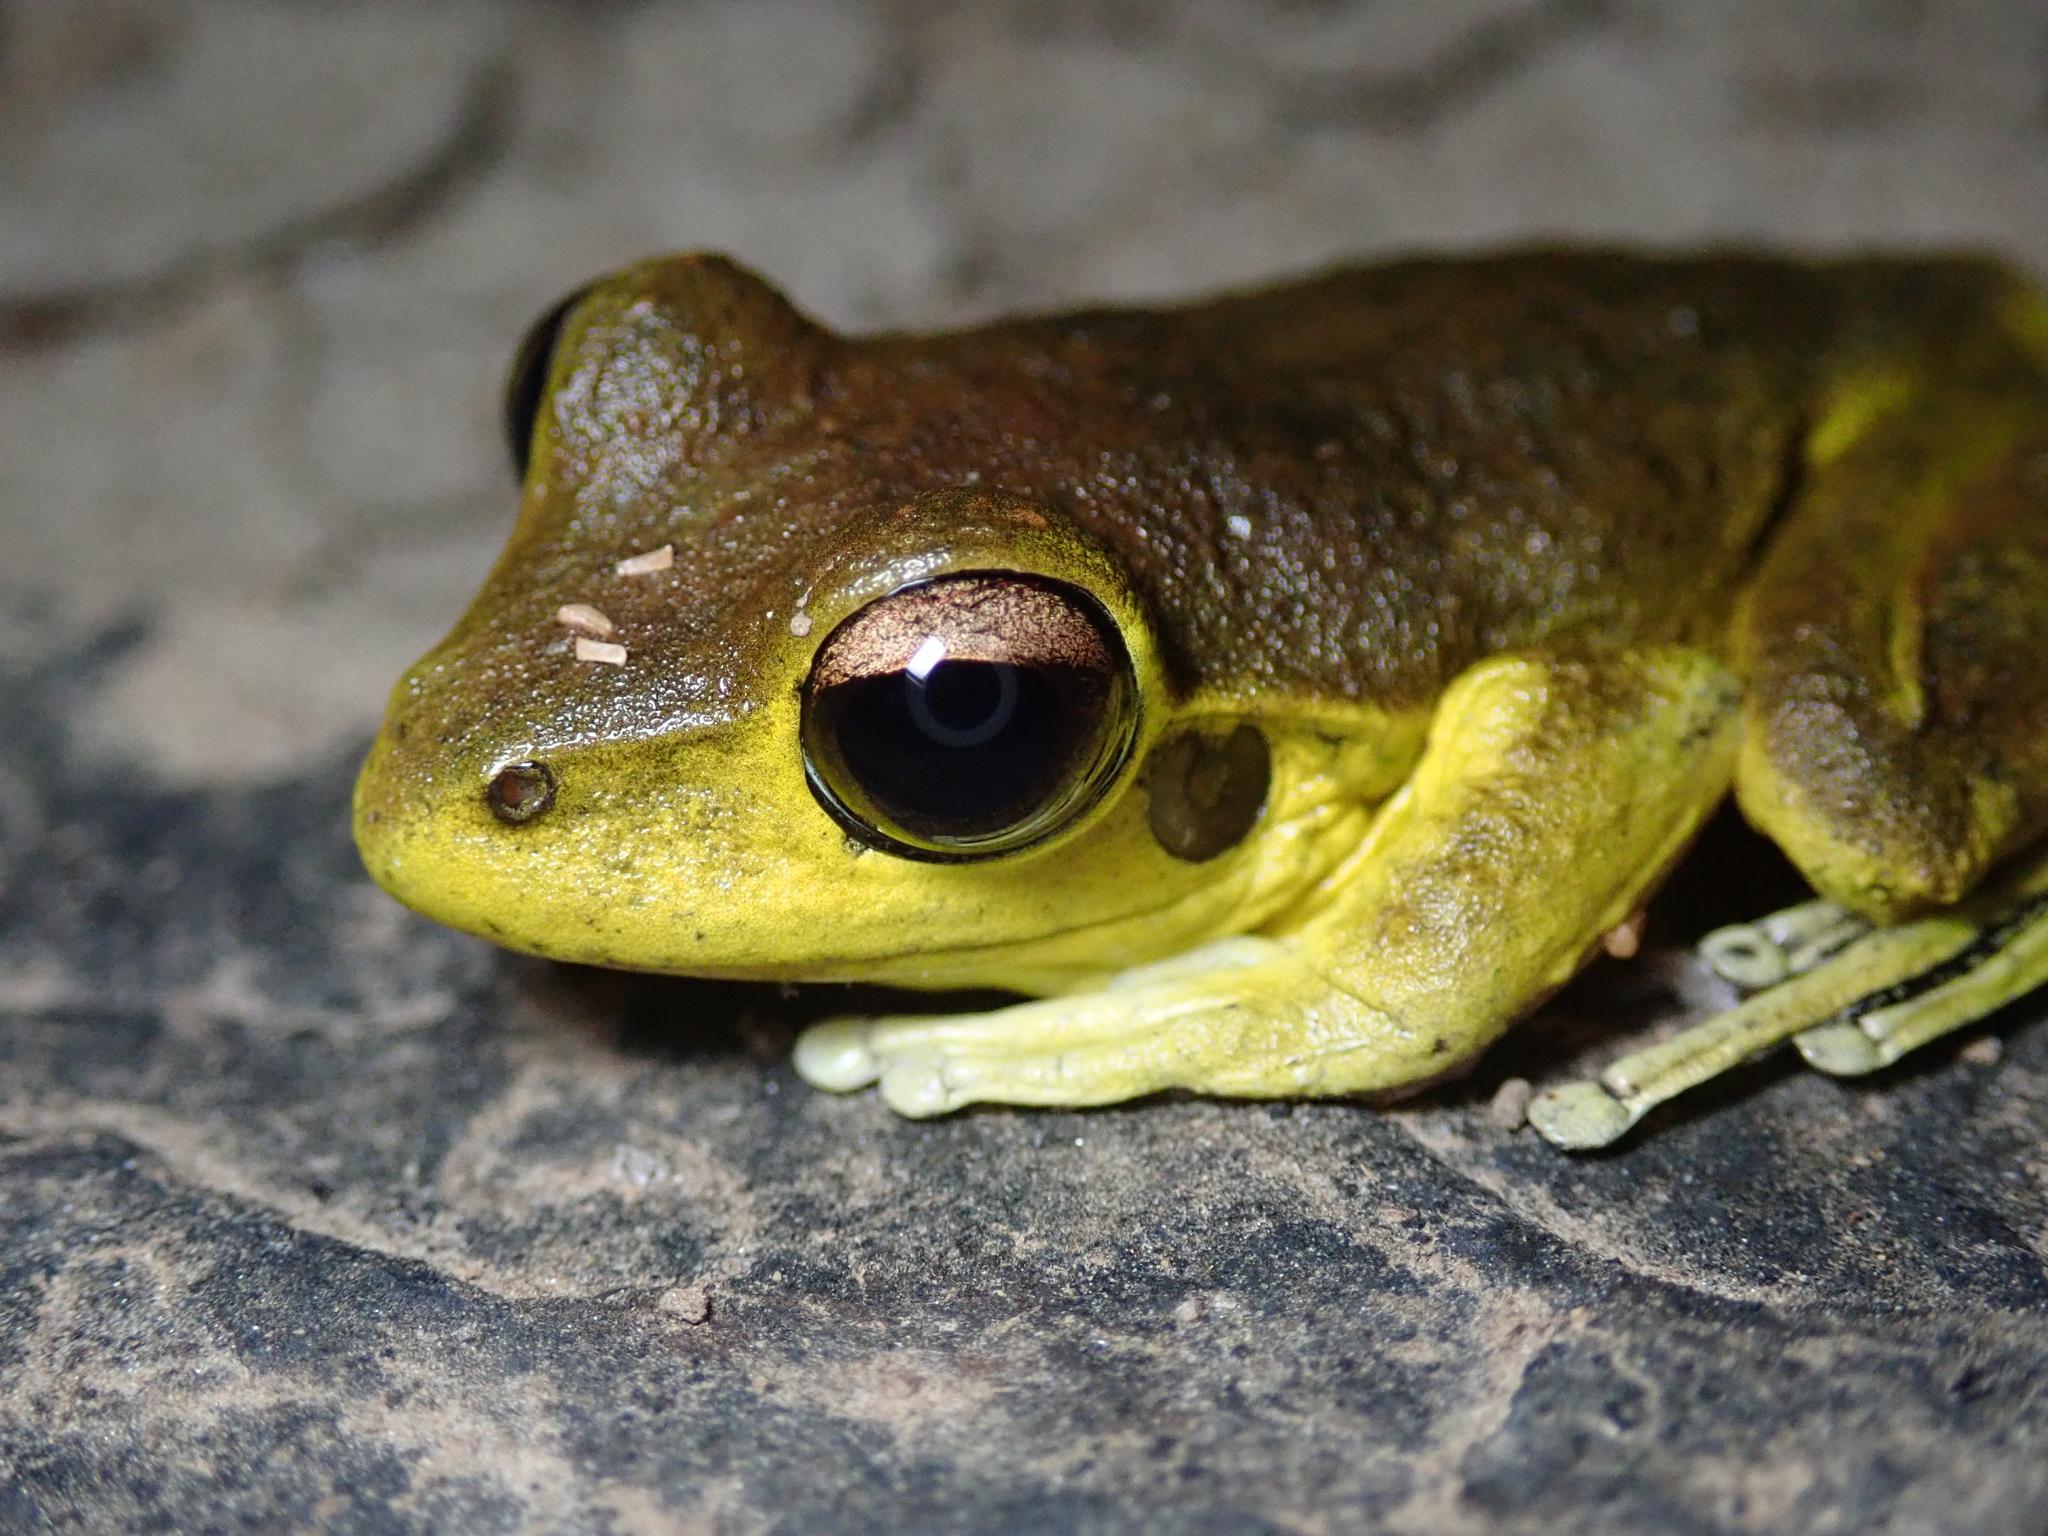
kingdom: Animalia
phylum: Chordata
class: Amphibia
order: Anura
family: Hylidae
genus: Ranoidea
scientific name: Ranoidea
